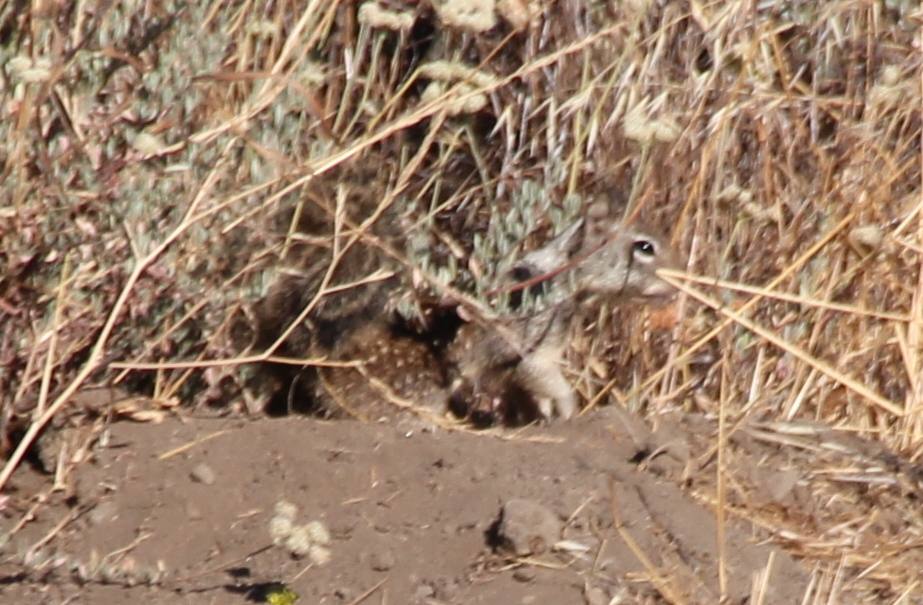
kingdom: Animalia
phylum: Chordata
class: Mammalia
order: Rodentia
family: Sciuridae
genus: Otospermophilus
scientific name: Otospermophilus beecheyi
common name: California ground squirrel
